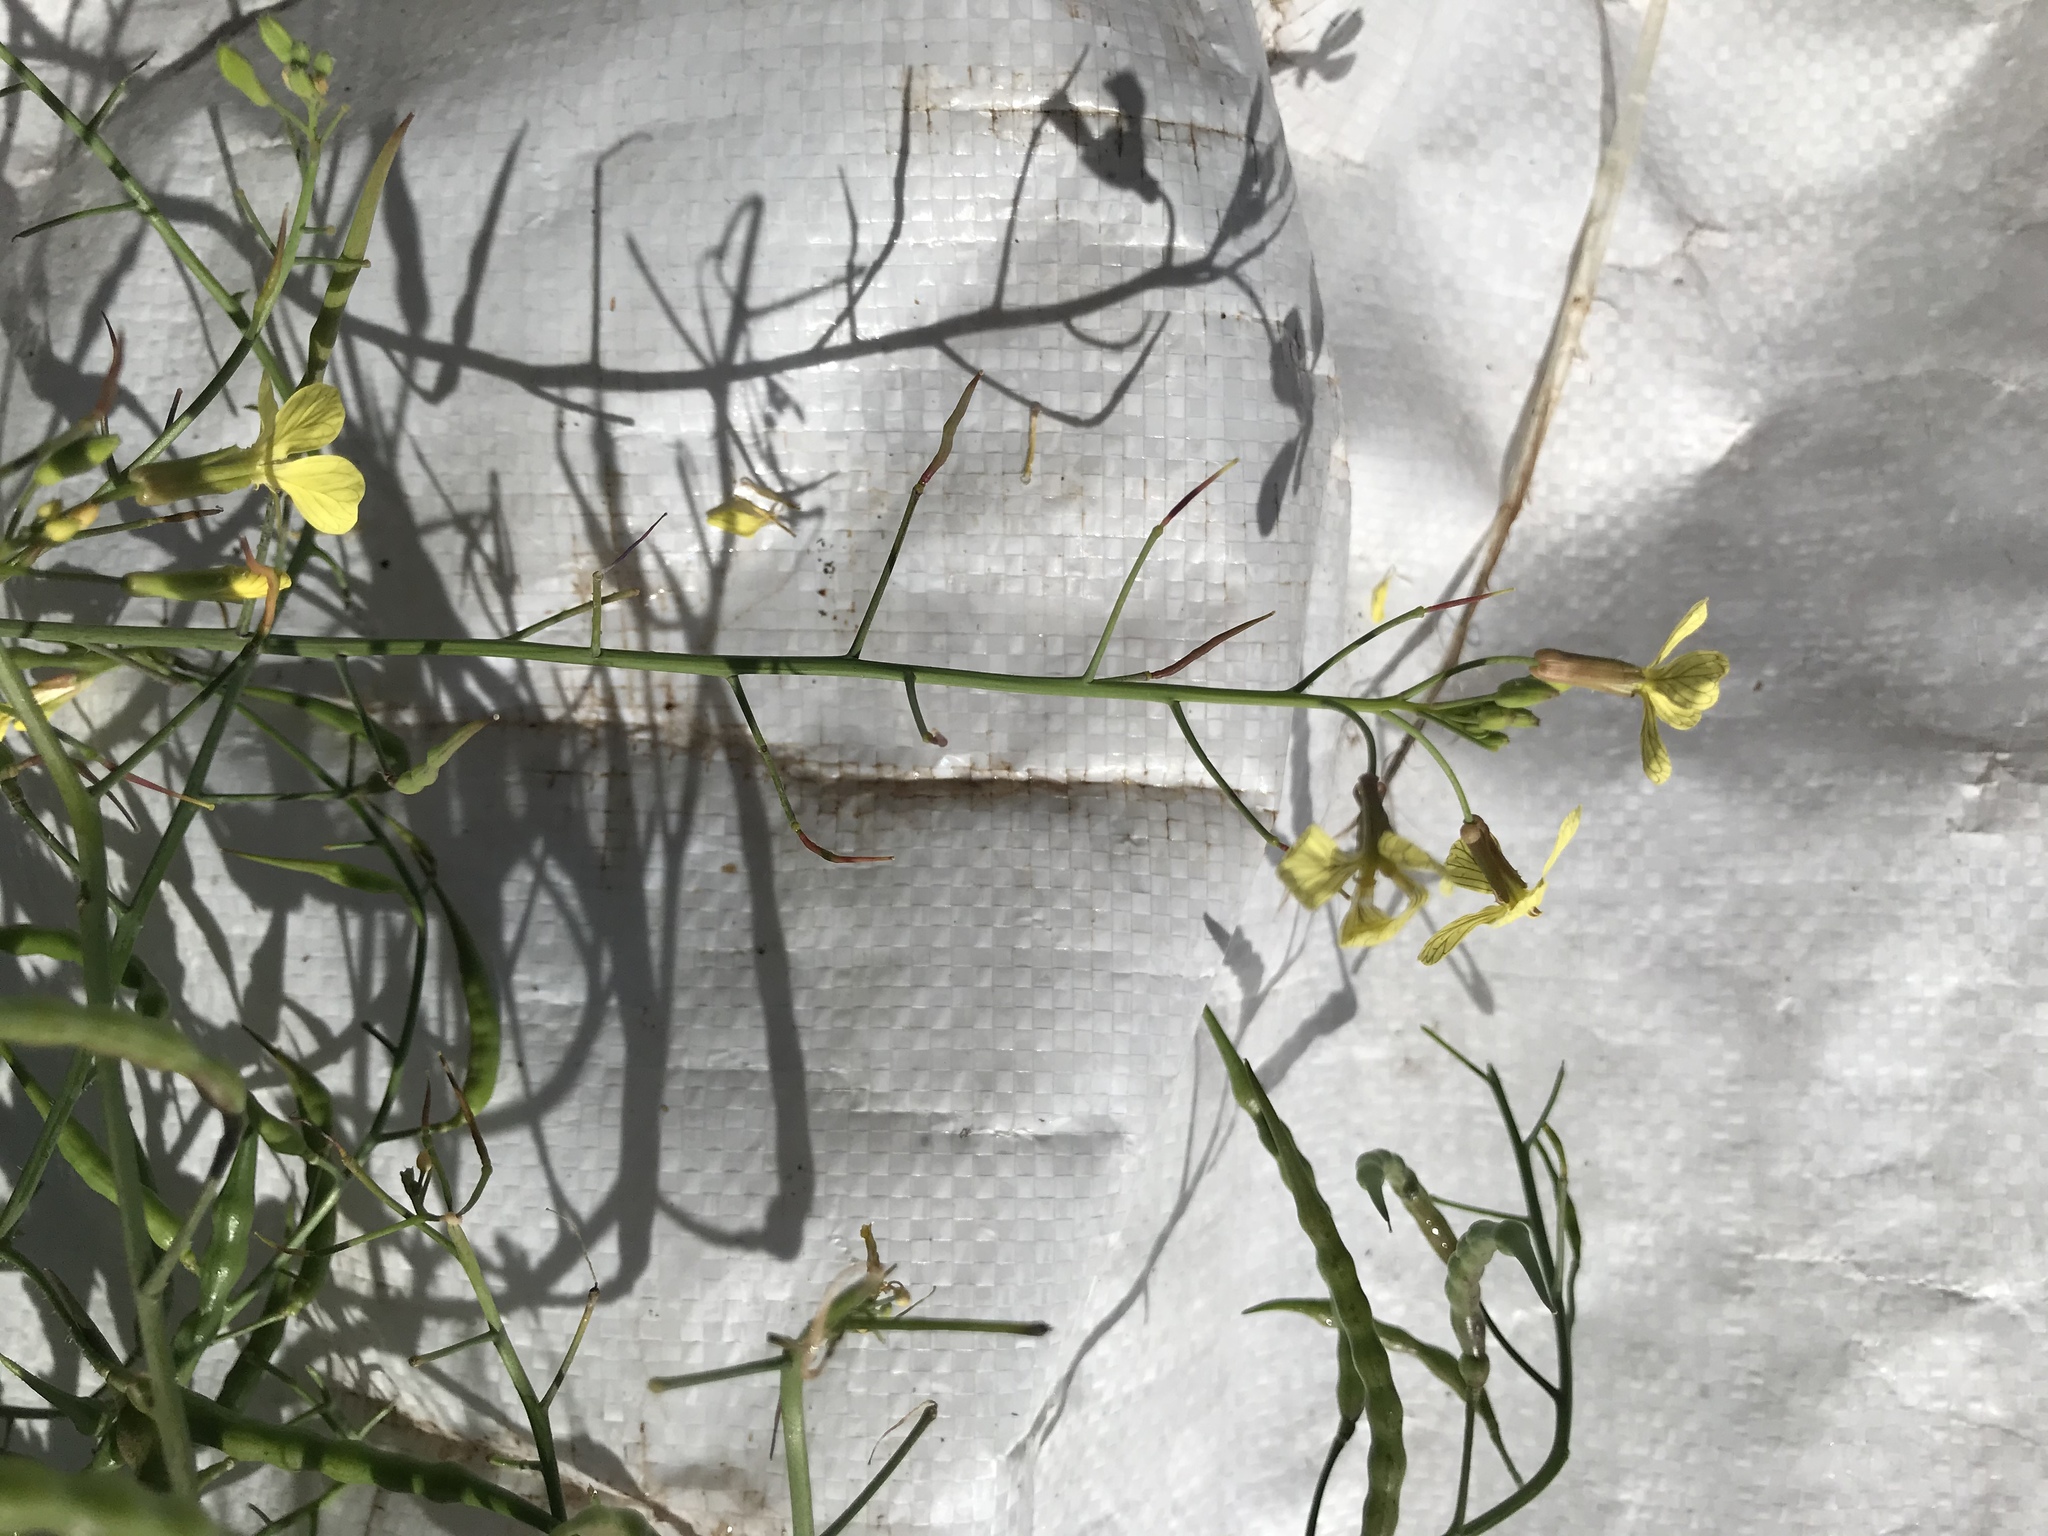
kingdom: Plantae
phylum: Tracheophyta
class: Magnoliopsida
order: Brassicales
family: Brassicaceae
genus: Raphanus
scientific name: Raphanus raphanistrum
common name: Wild radish
